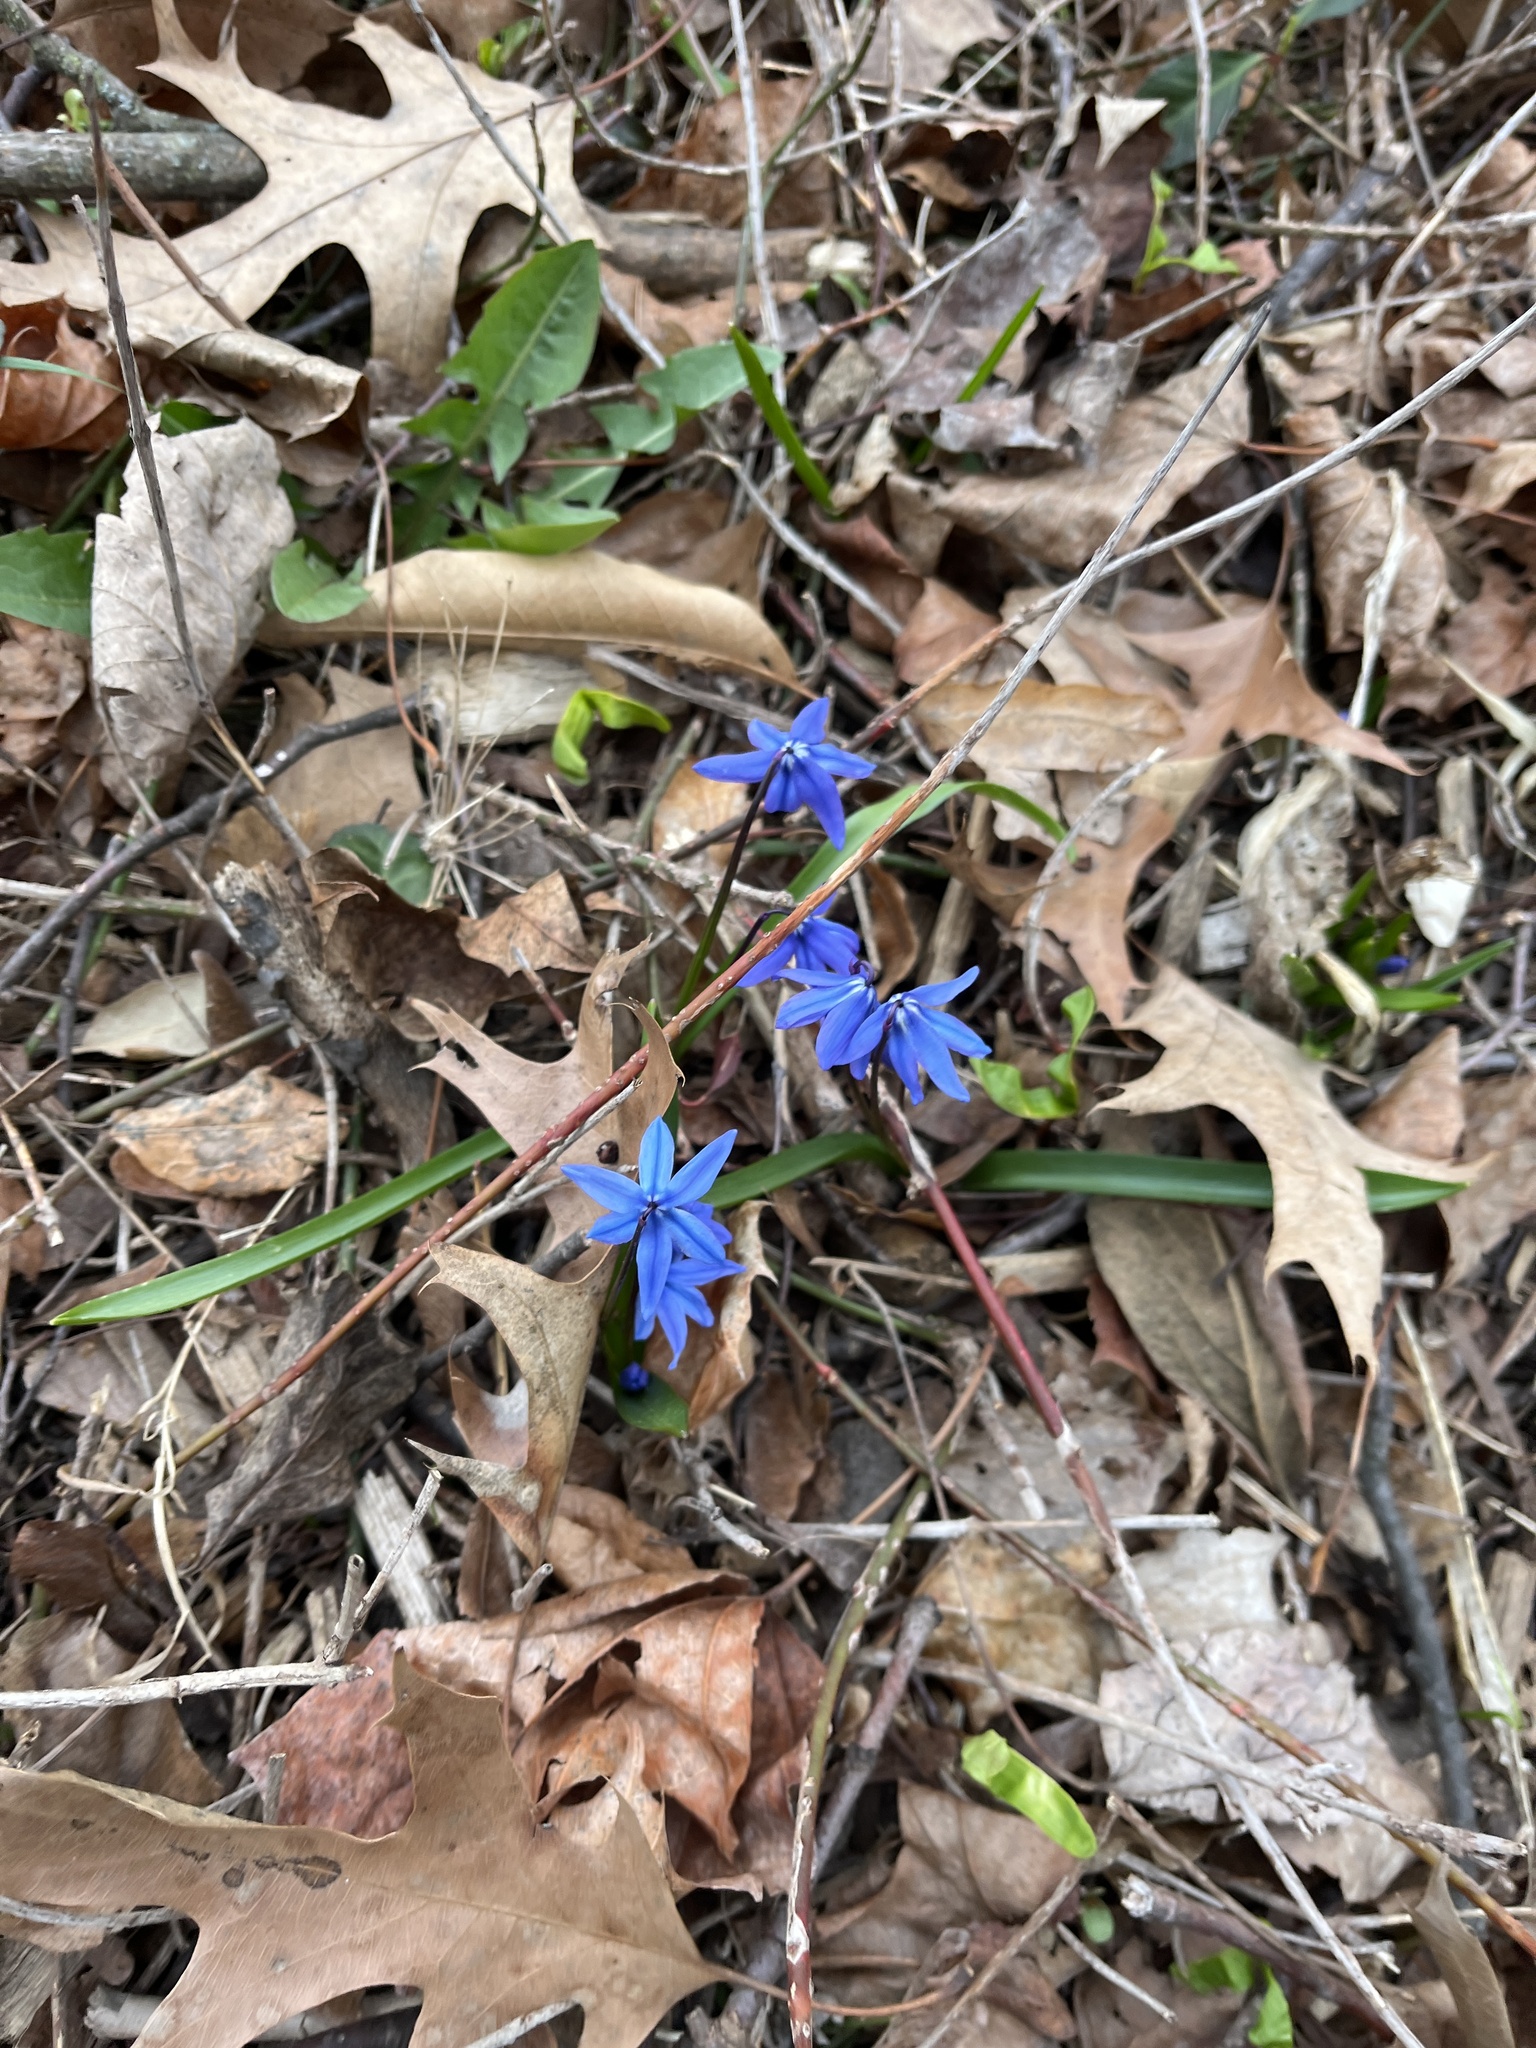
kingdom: Plantae
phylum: Tracheophyta
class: Liliopsida
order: Asparagales
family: Asparagaceae
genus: Scilla
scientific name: Scilla siberica
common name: Siberian squill
